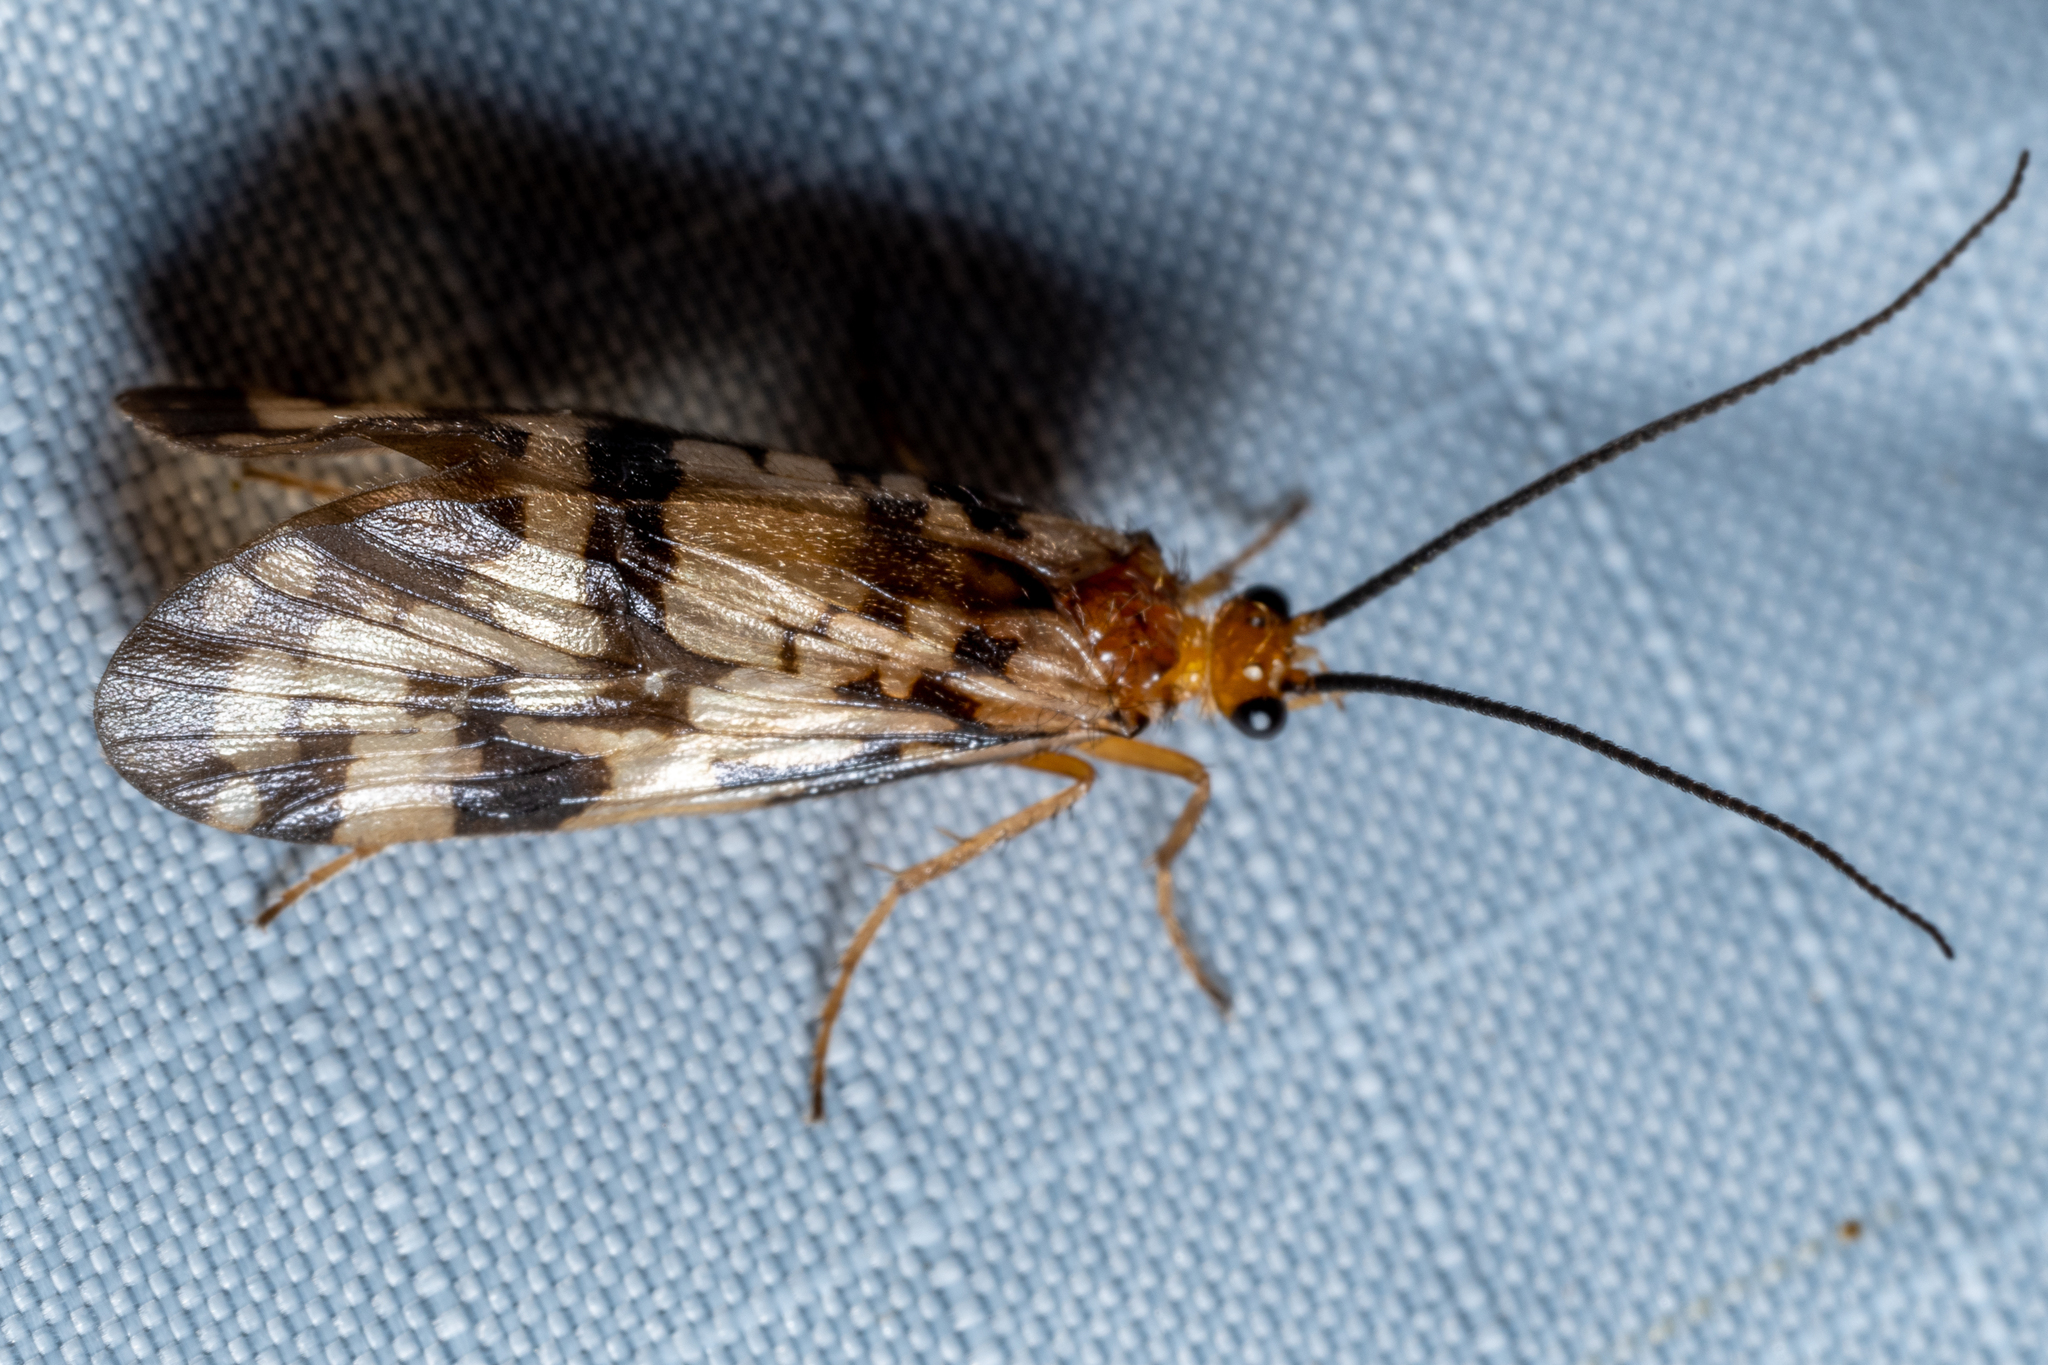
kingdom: Animalia
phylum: Arthropoda
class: Insecta
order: Trichoptera
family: Phryganeidae
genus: Banksiola
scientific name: Banksiola dossuaria
